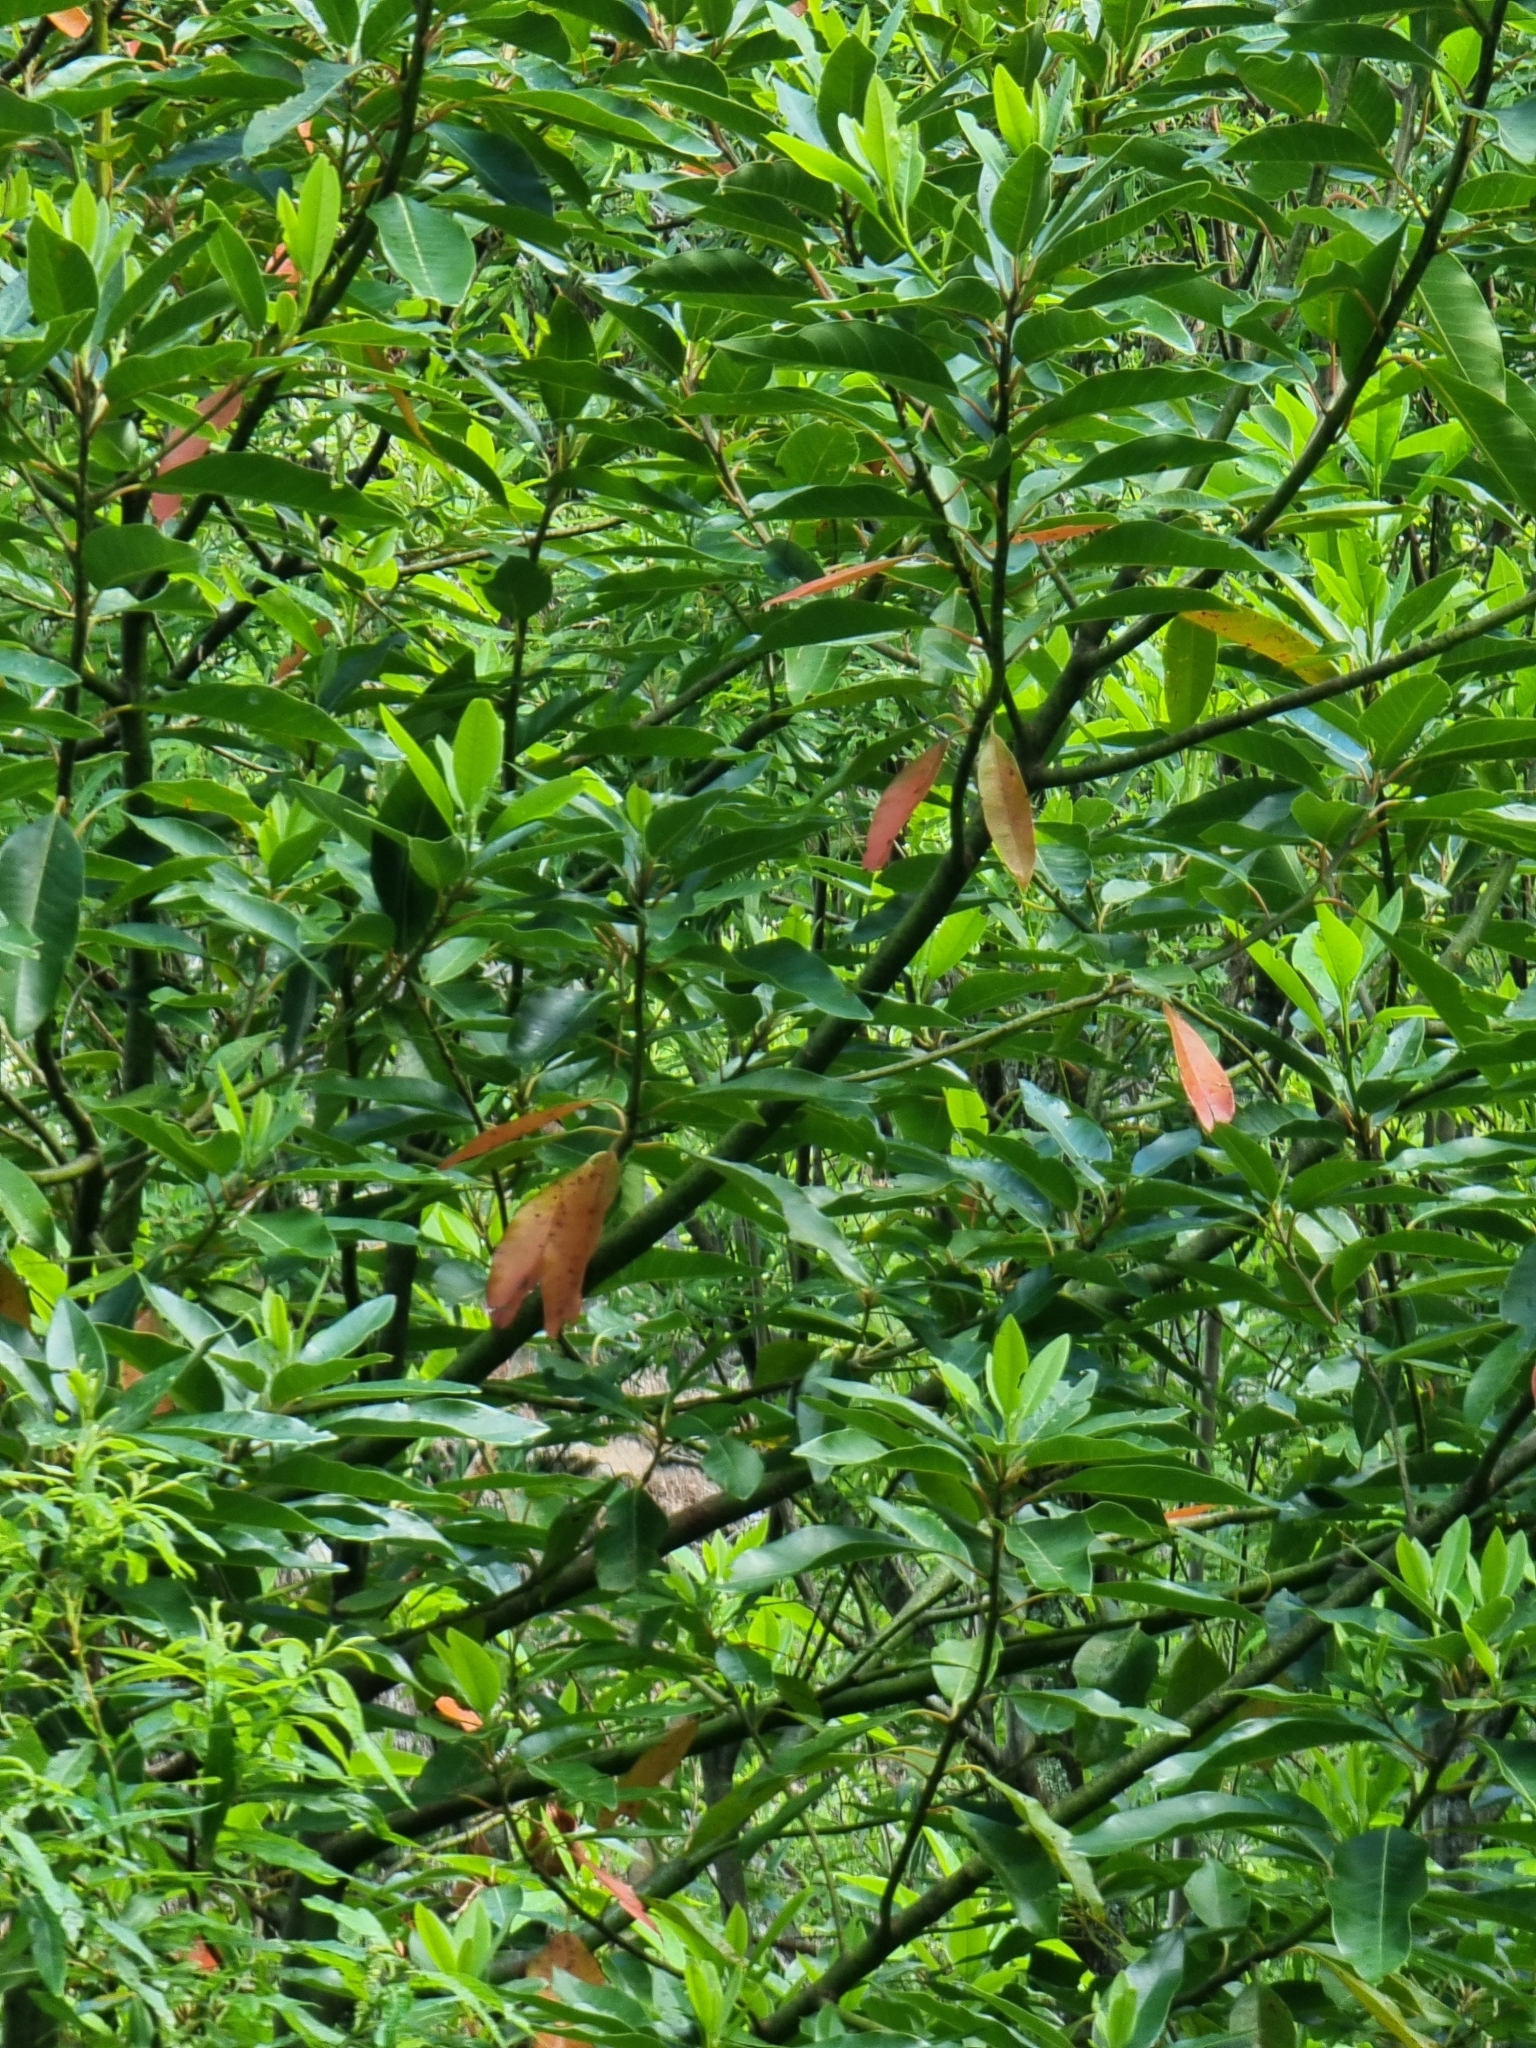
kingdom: Plantae
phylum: Tracheophyta
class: Magnoliopsida
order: Laurales
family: Lauraceae
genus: Persea
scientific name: Persea indica
